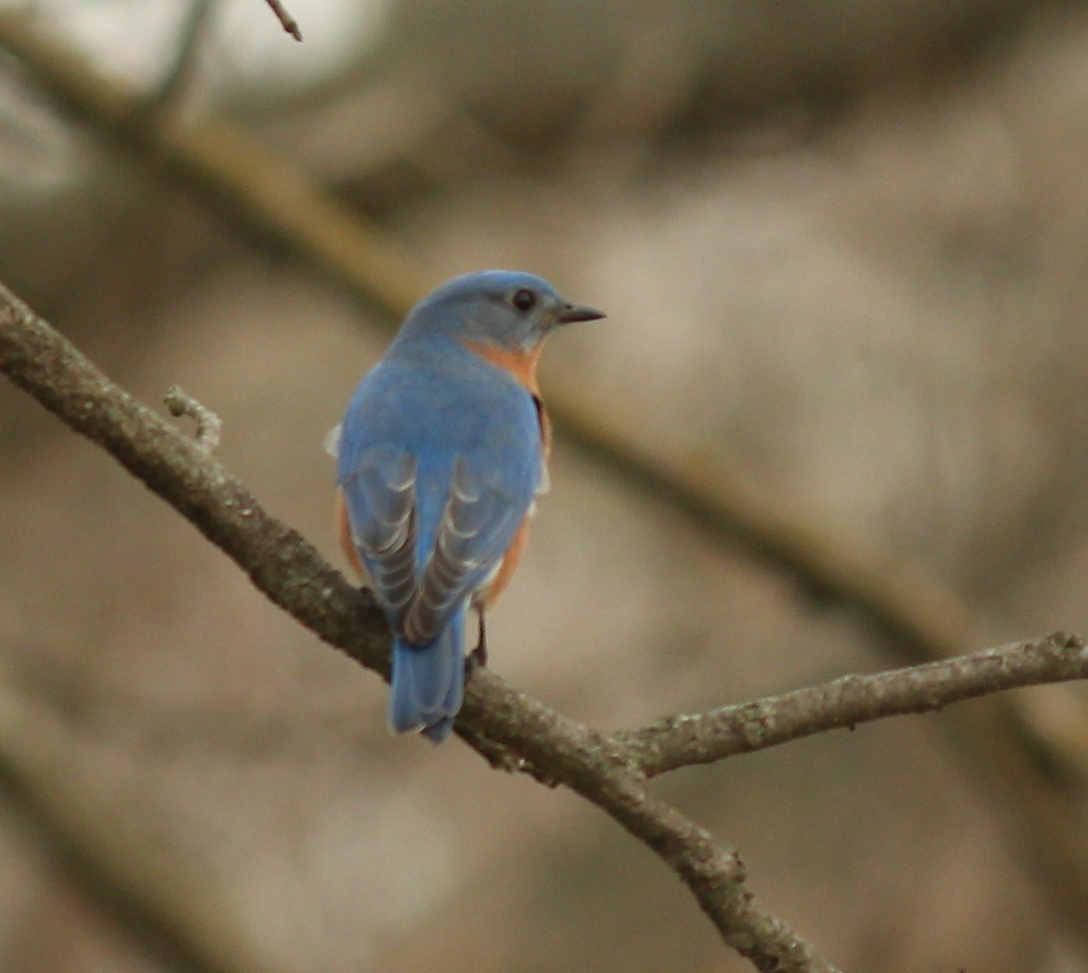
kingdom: Animalia
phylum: Chordata
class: Aves
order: Passeriformes
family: Turdidae
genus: Sialia
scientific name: Sialia sialis
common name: Eastern bluebird
